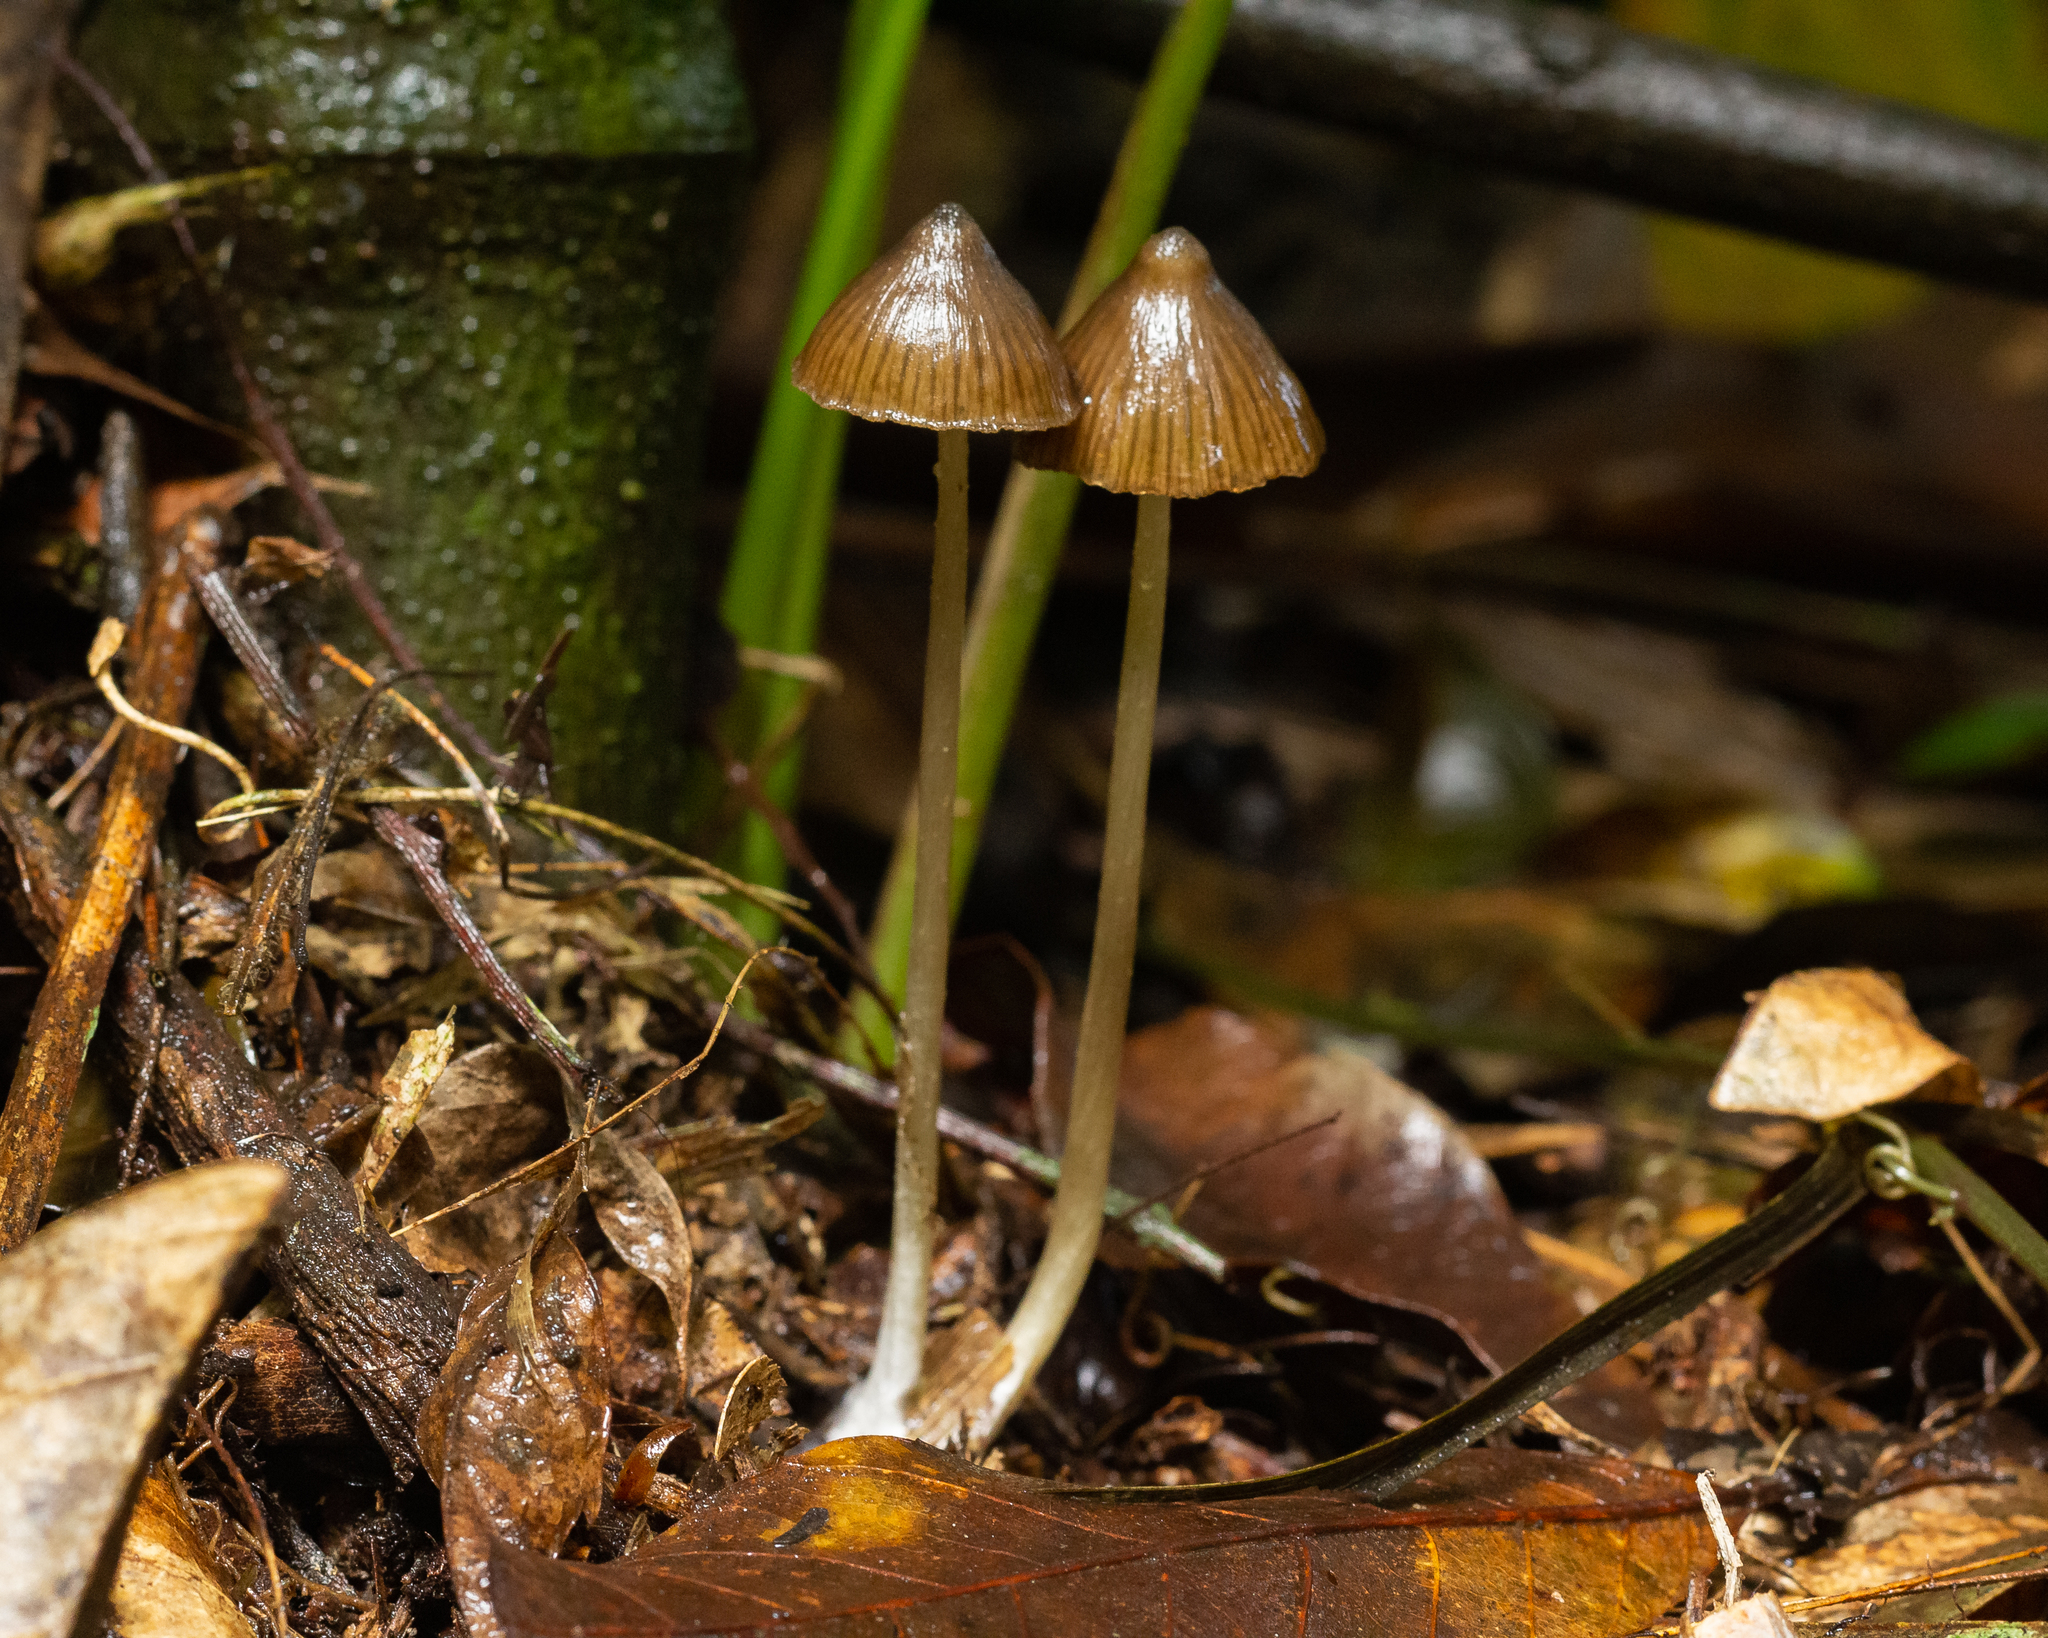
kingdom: Fungi
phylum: Basidiomycota
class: Agaricomycetes
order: Agaricales
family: Entolomataceae
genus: Entoloma
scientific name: Entoloma tenue
